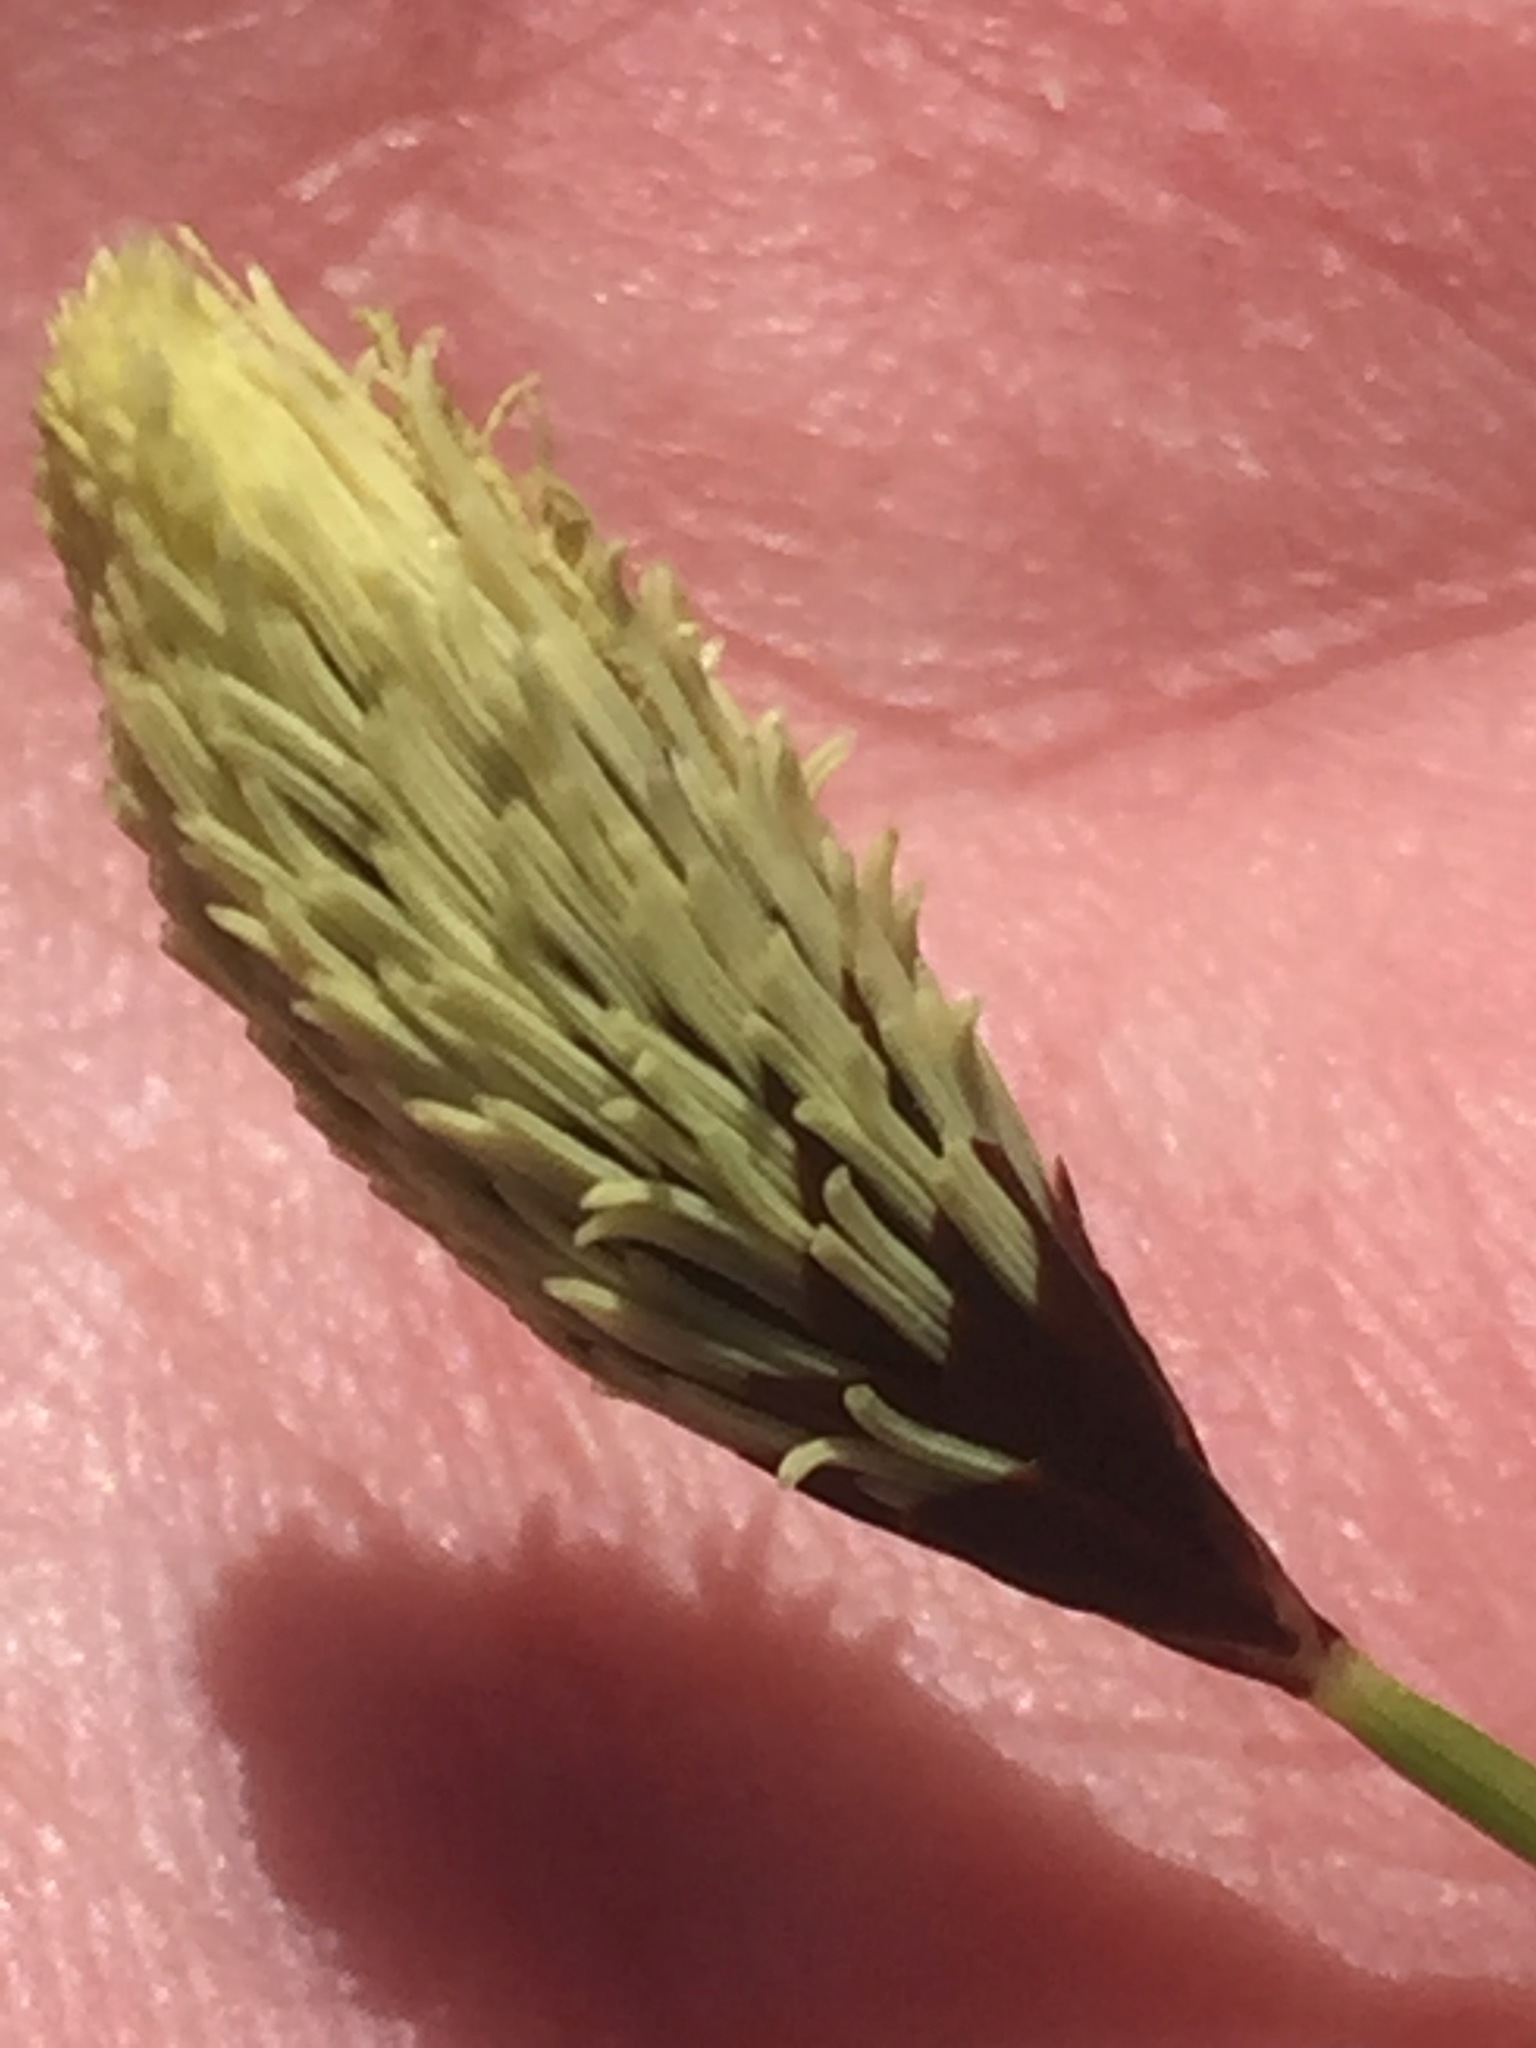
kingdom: Plantae
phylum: Tracheophyta
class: Liliopsida
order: Poales
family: Cyperaceae
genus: Carex
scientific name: Carex plantaginea
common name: Plantain-leaved sedge
